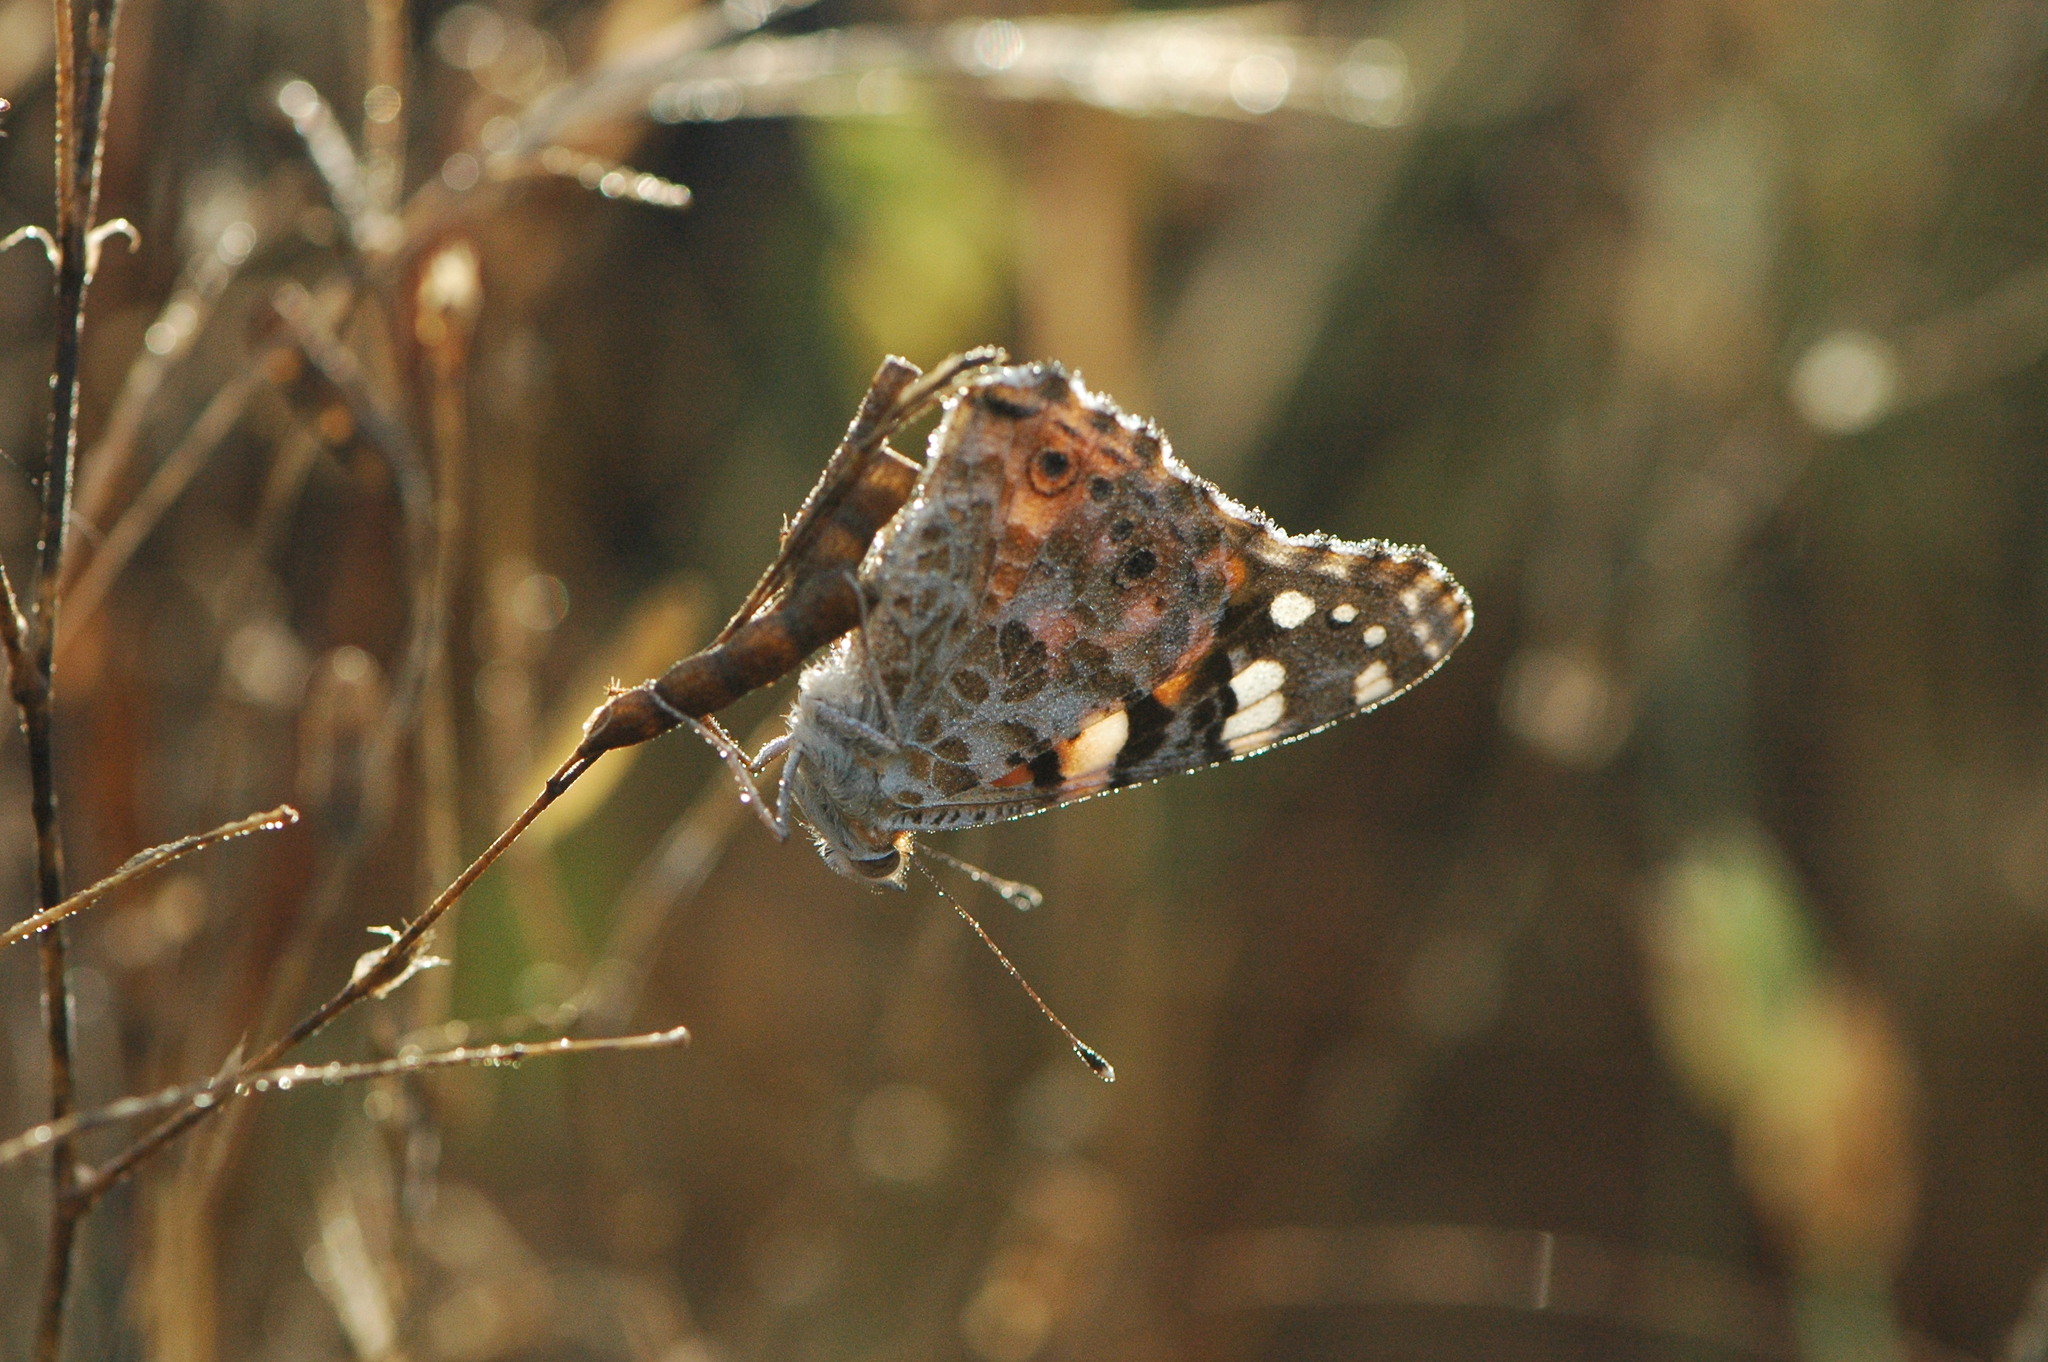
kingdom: Animalia
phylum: Arthropoda
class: Insecta
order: Lepidoptera
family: Nymphalidae
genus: Vanessa
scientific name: Vanessa cardui
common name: Painted lady
